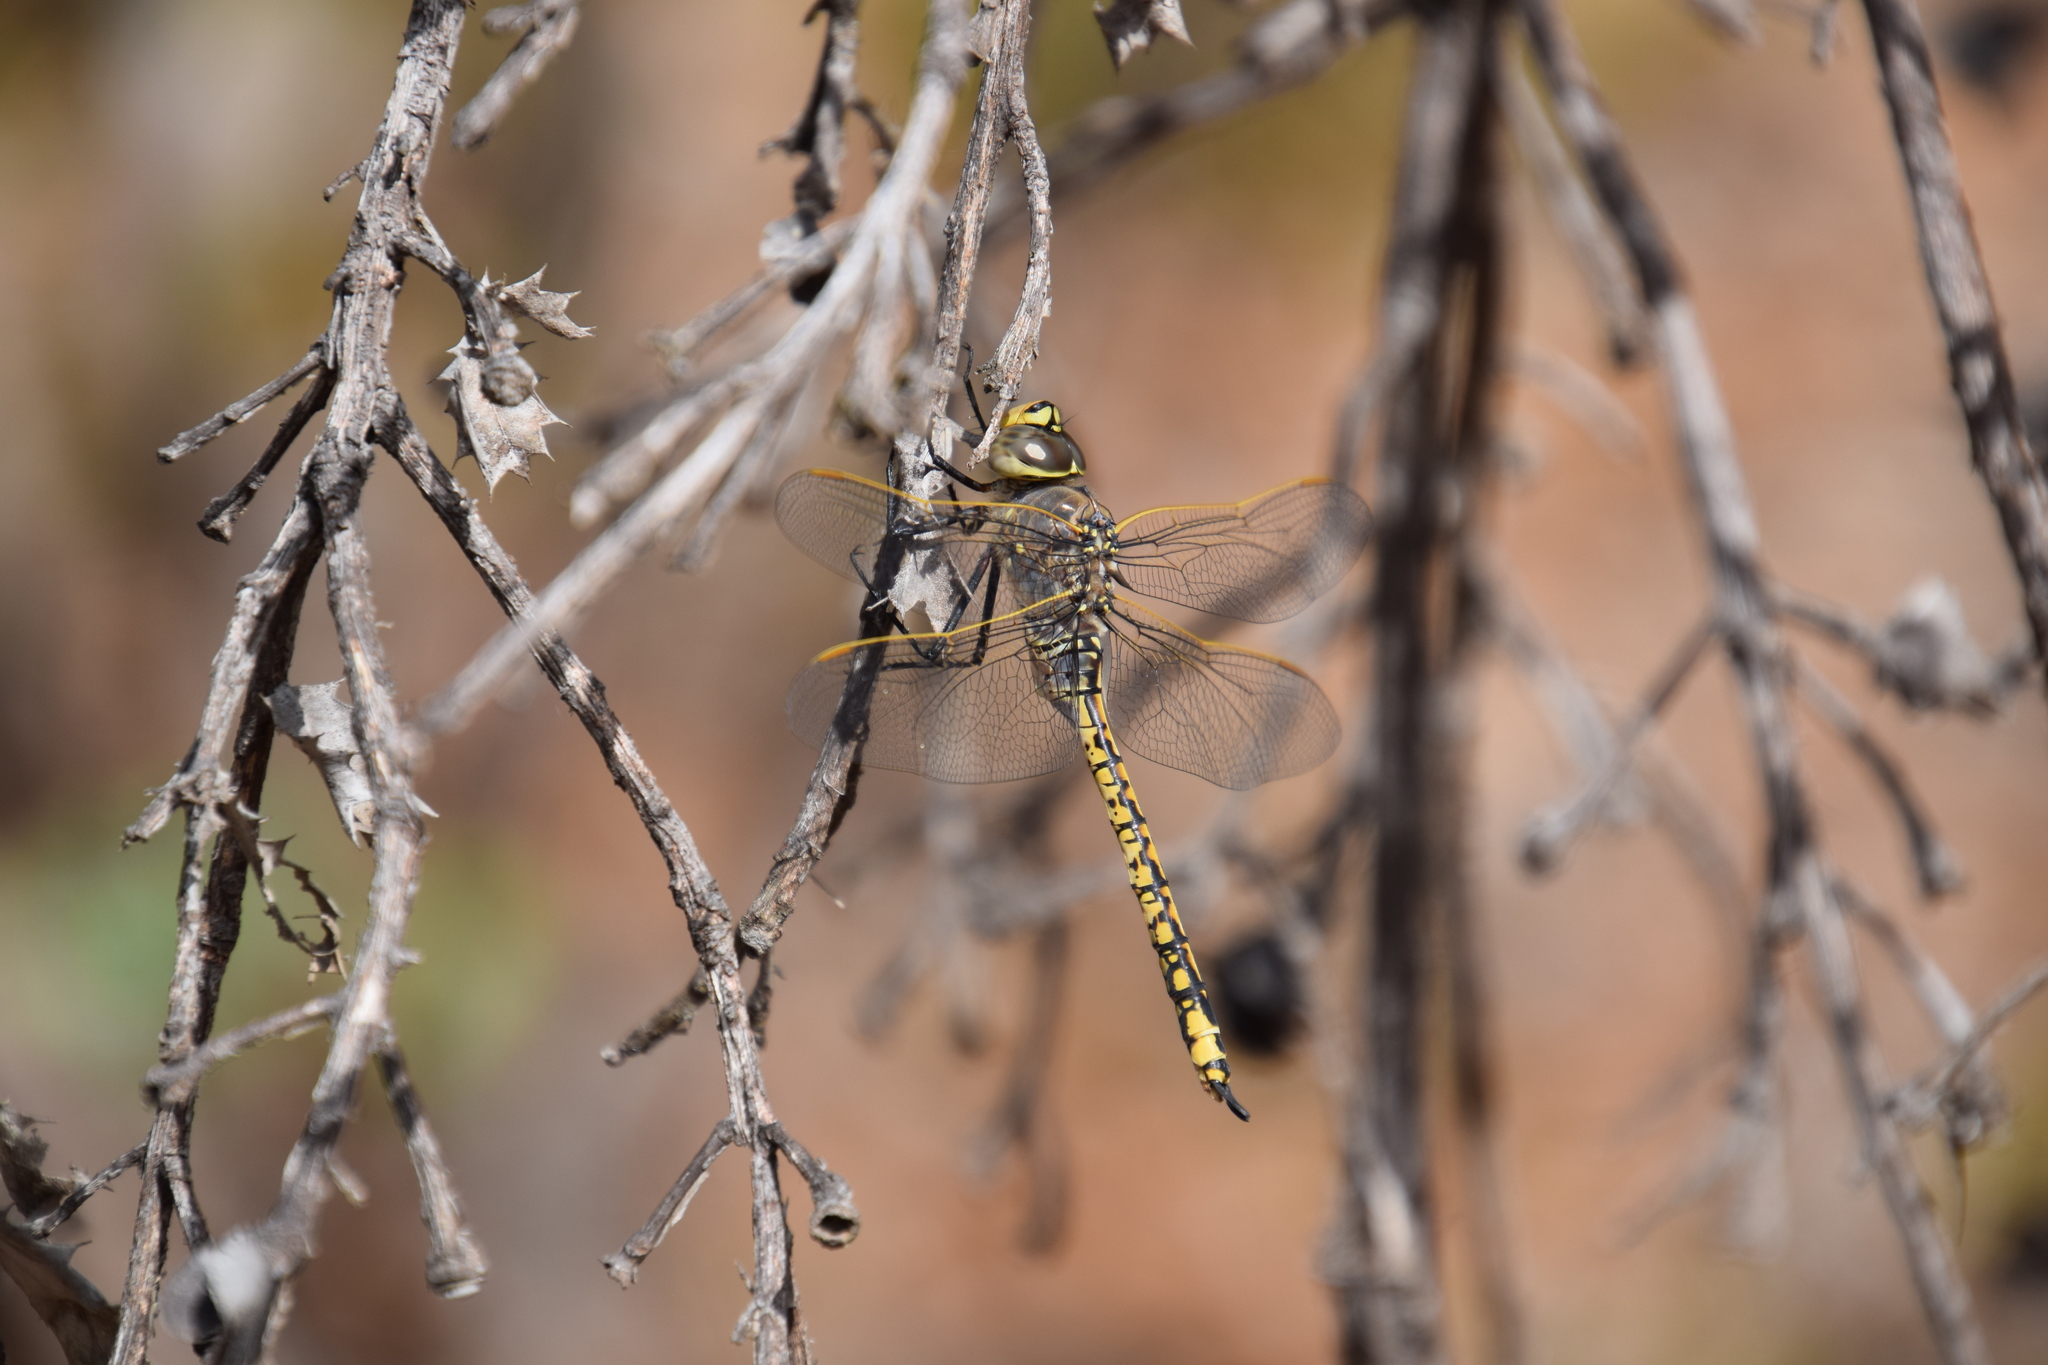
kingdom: Animalia
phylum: Arthropoda
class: Insecta
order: Odonata
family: Aeshnidae
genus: Anax
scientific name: Anax papuensis
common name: Australian emperor
